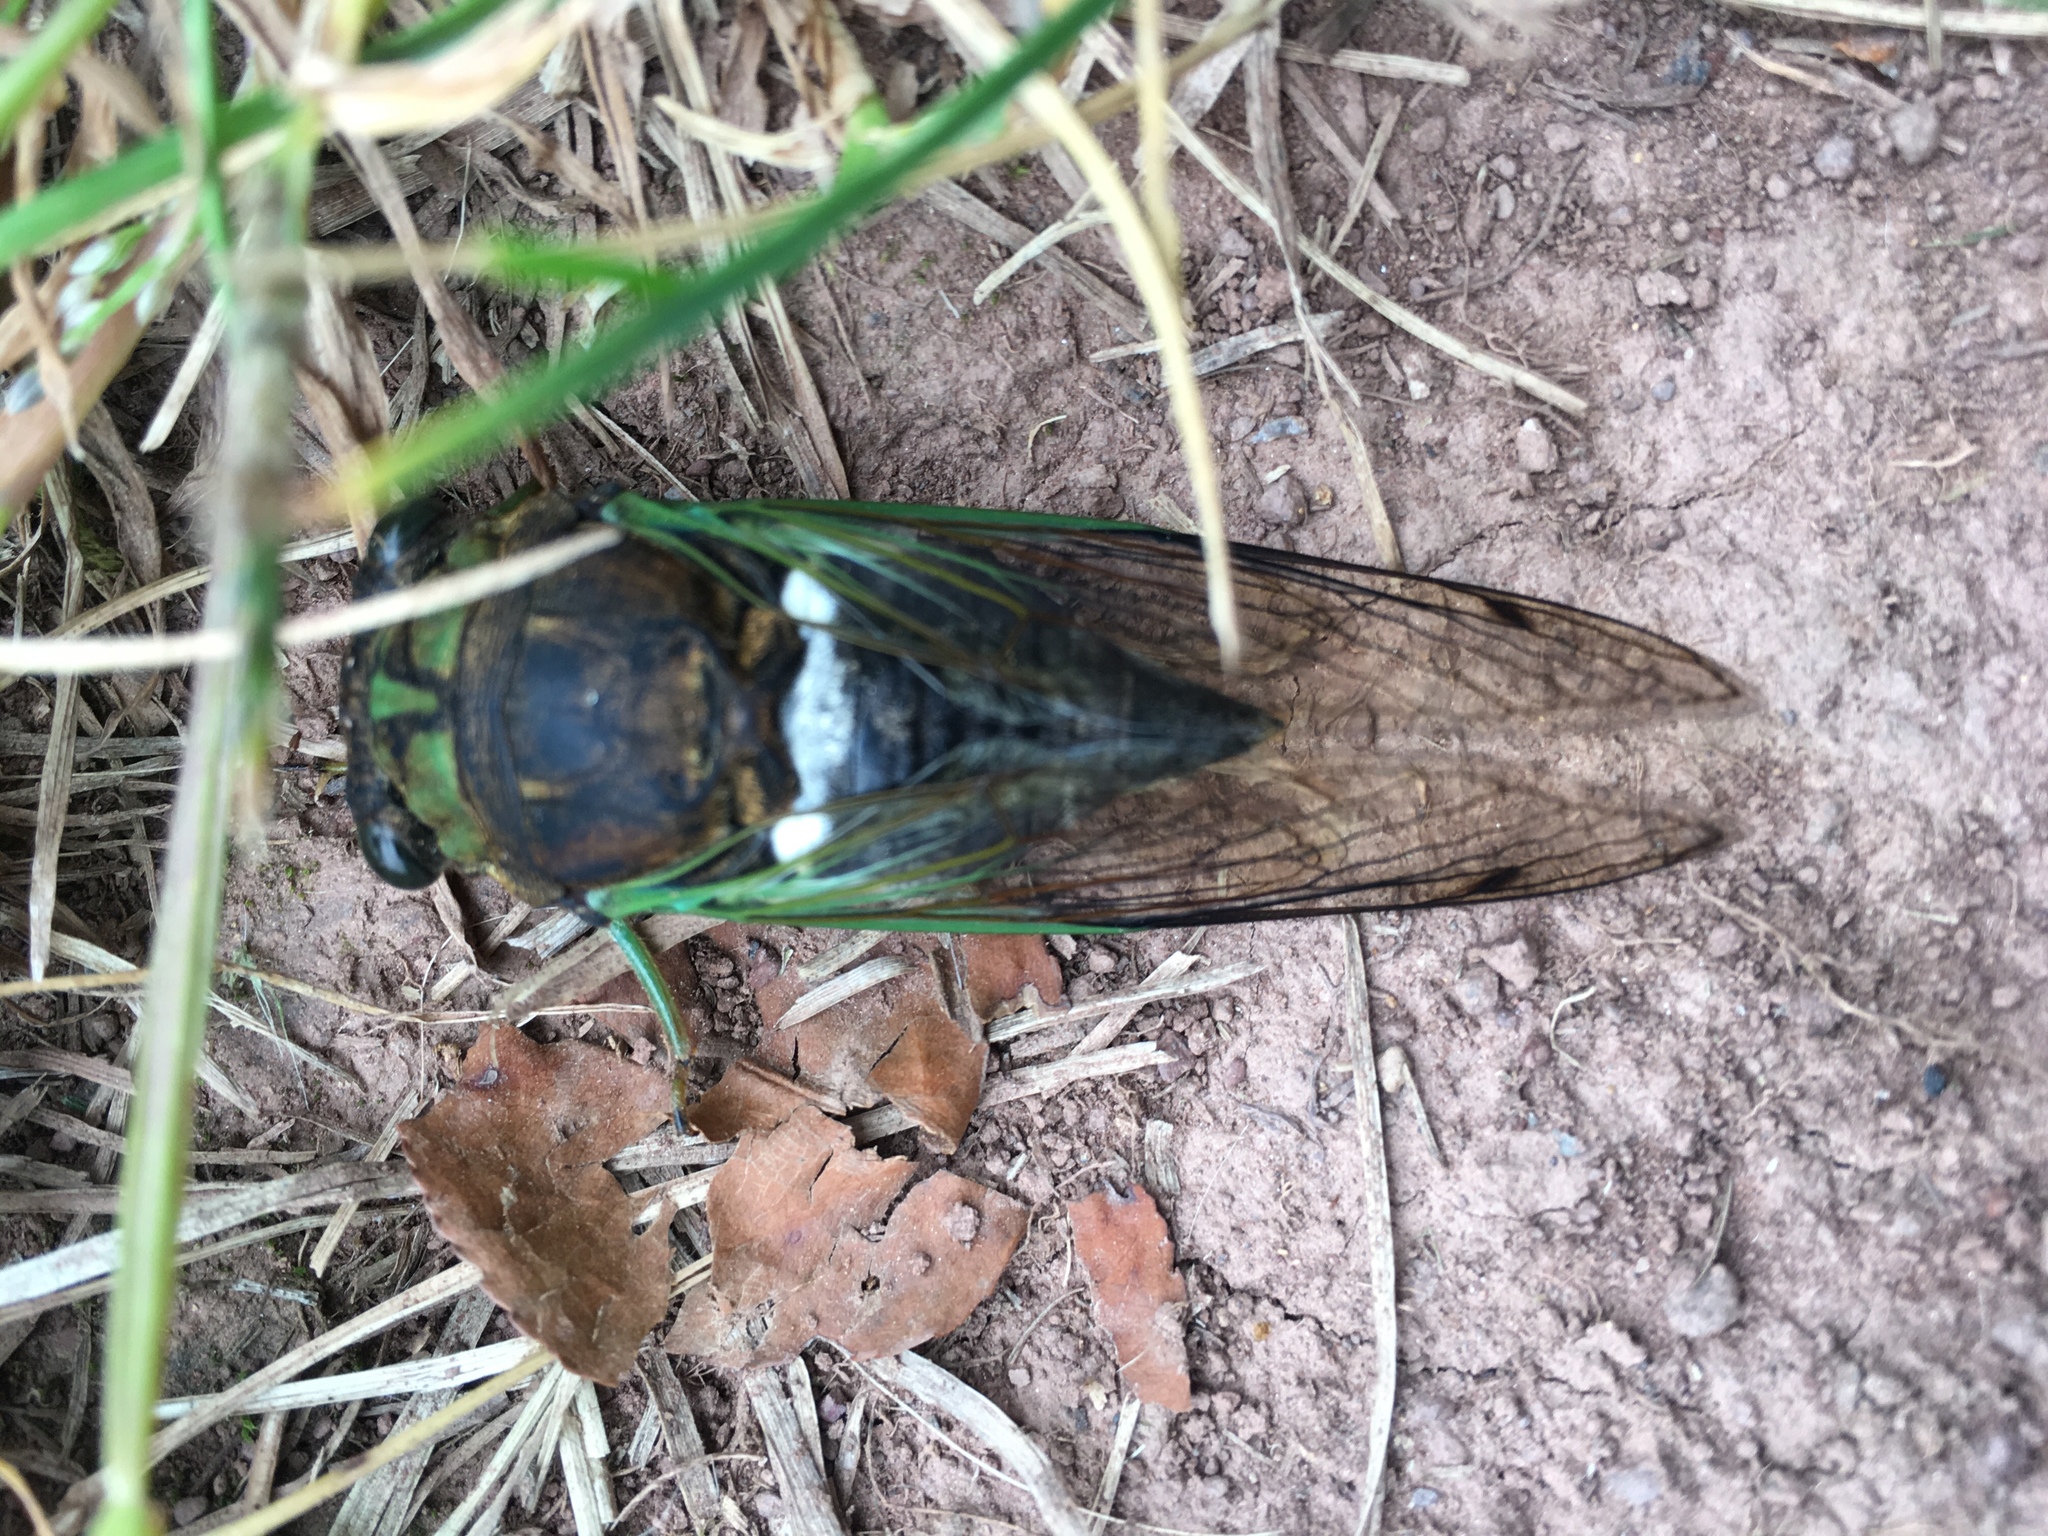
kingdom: Animalia
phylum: Arthropoda
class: Insecta
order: Hemiptera
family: Cicadidae
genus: Neotibicen
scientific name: Neotibicen tibicen
